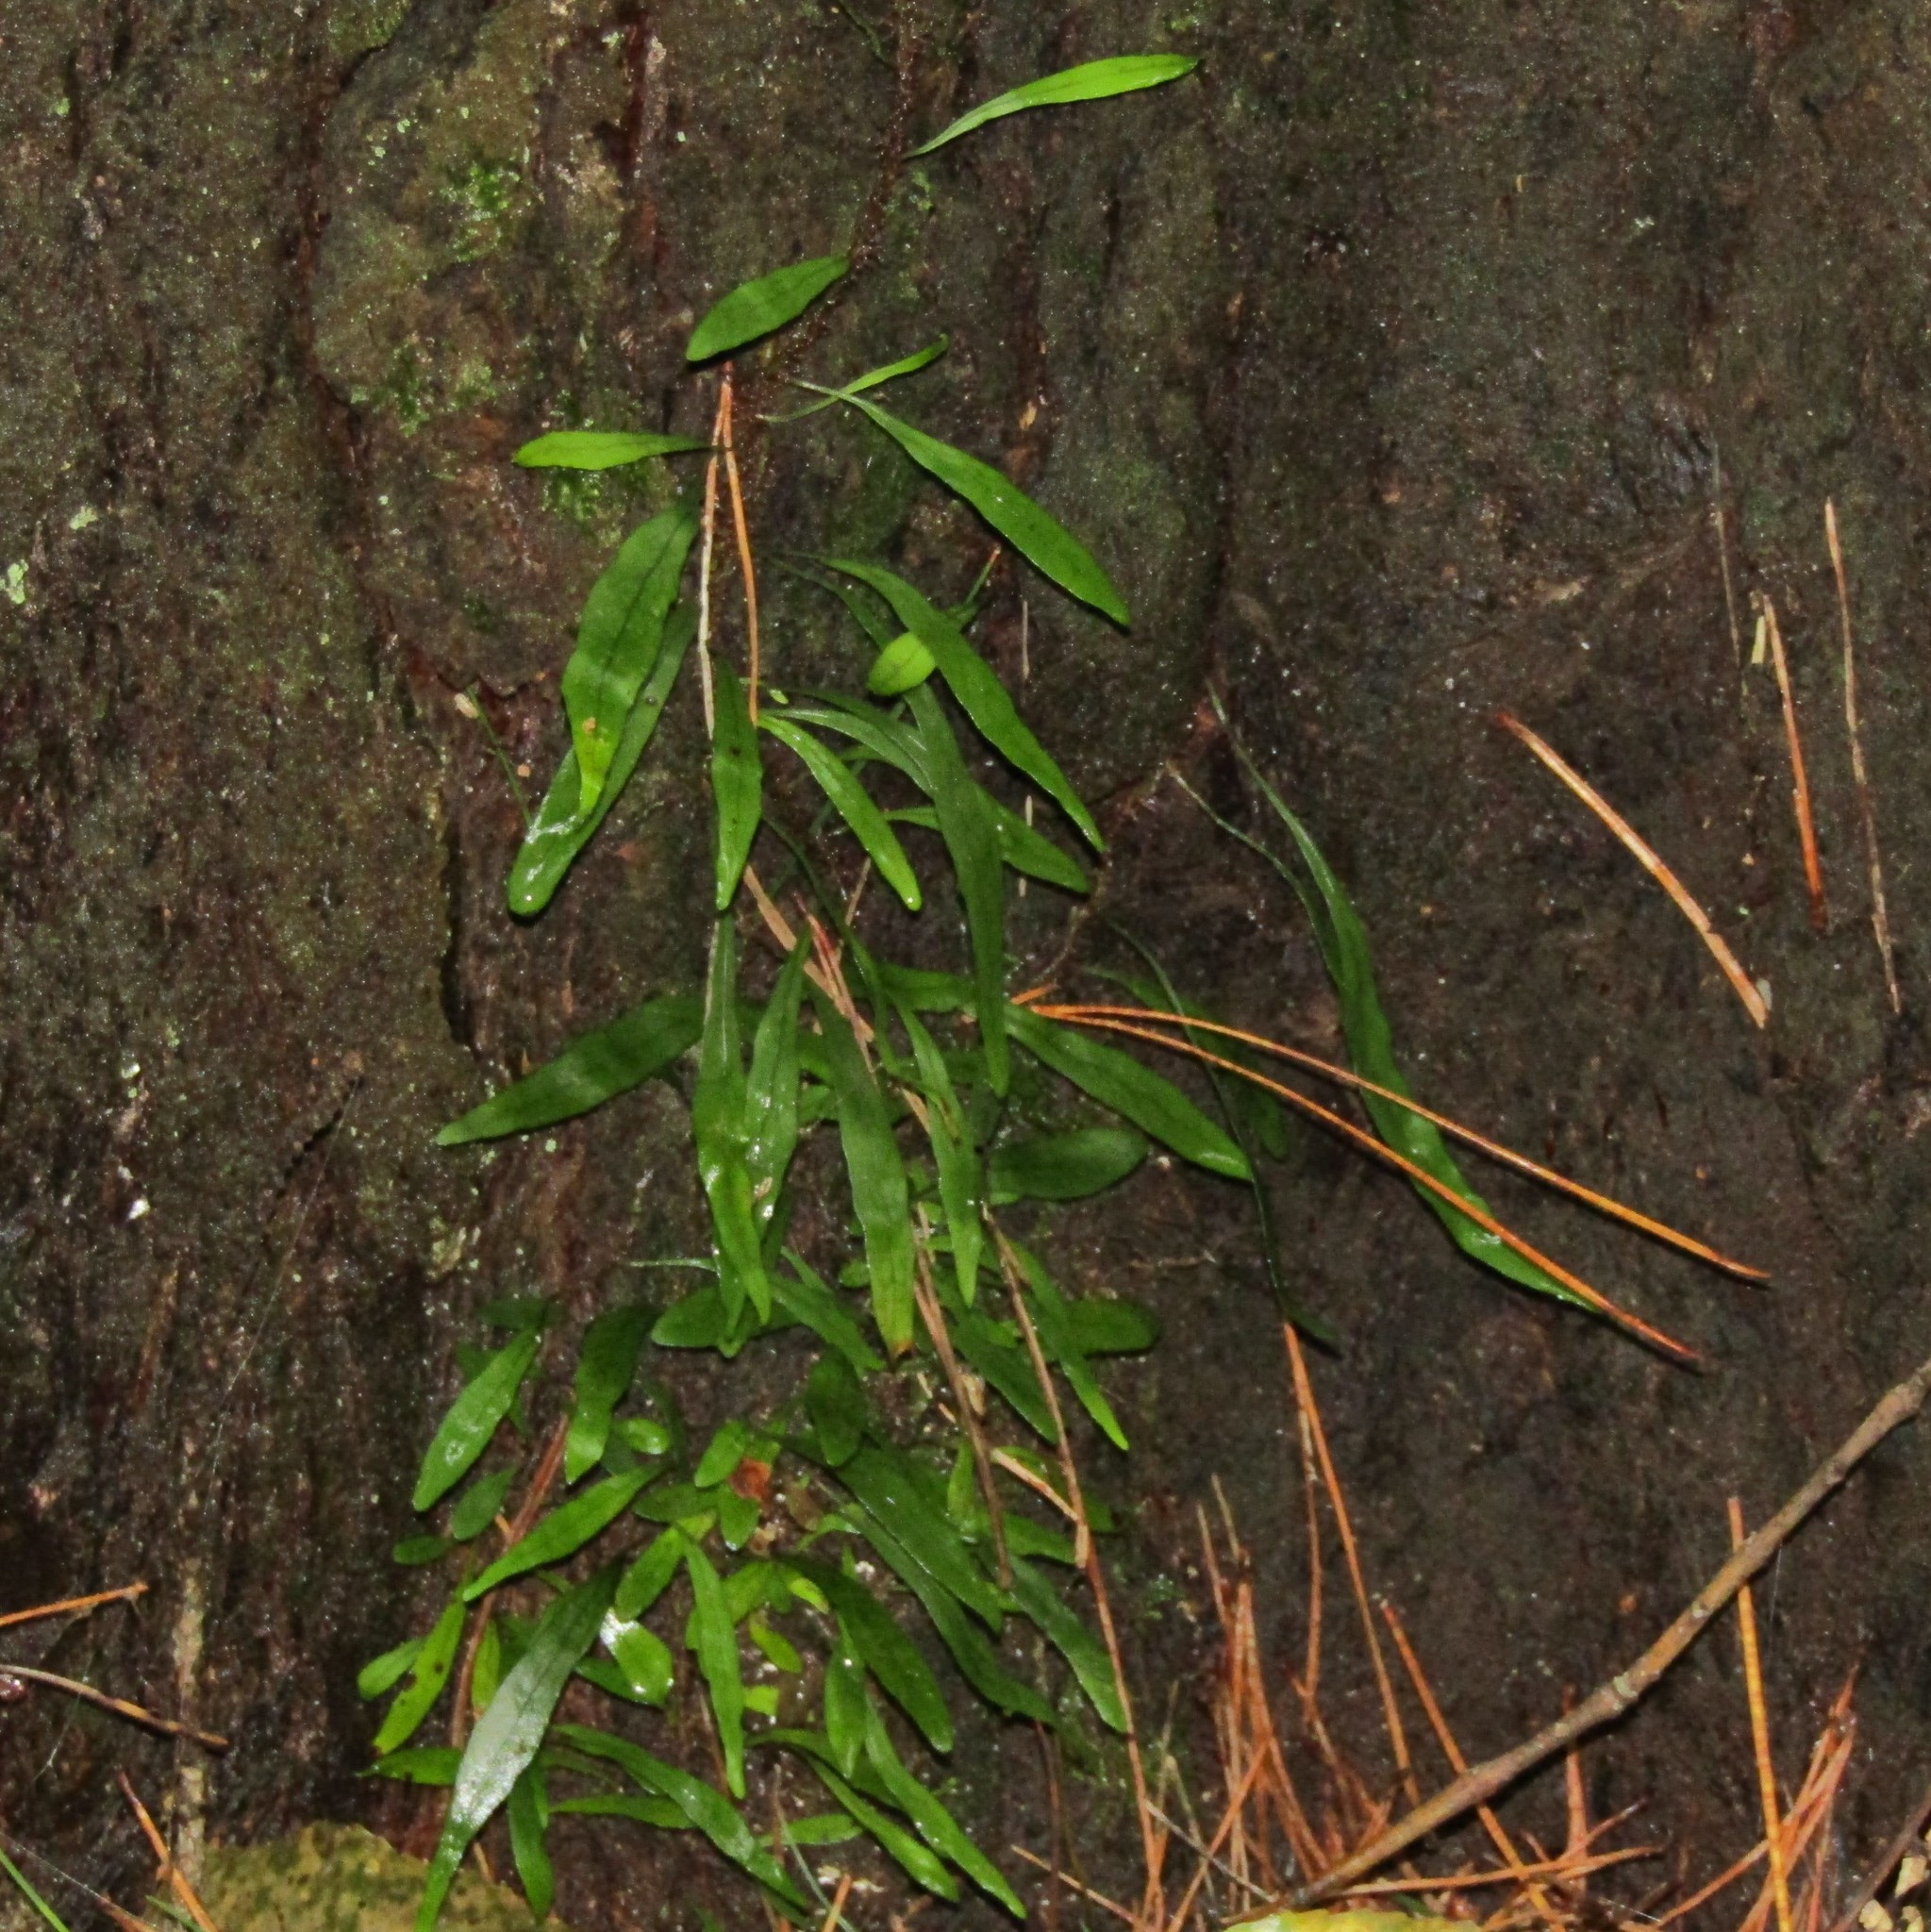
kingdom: Plantae
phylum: Tracheophyta
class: Polypodiopsida
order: Polypodiales
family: Polypodiaceae
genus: Lecanopteris
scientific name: Lecanopteris scandens
